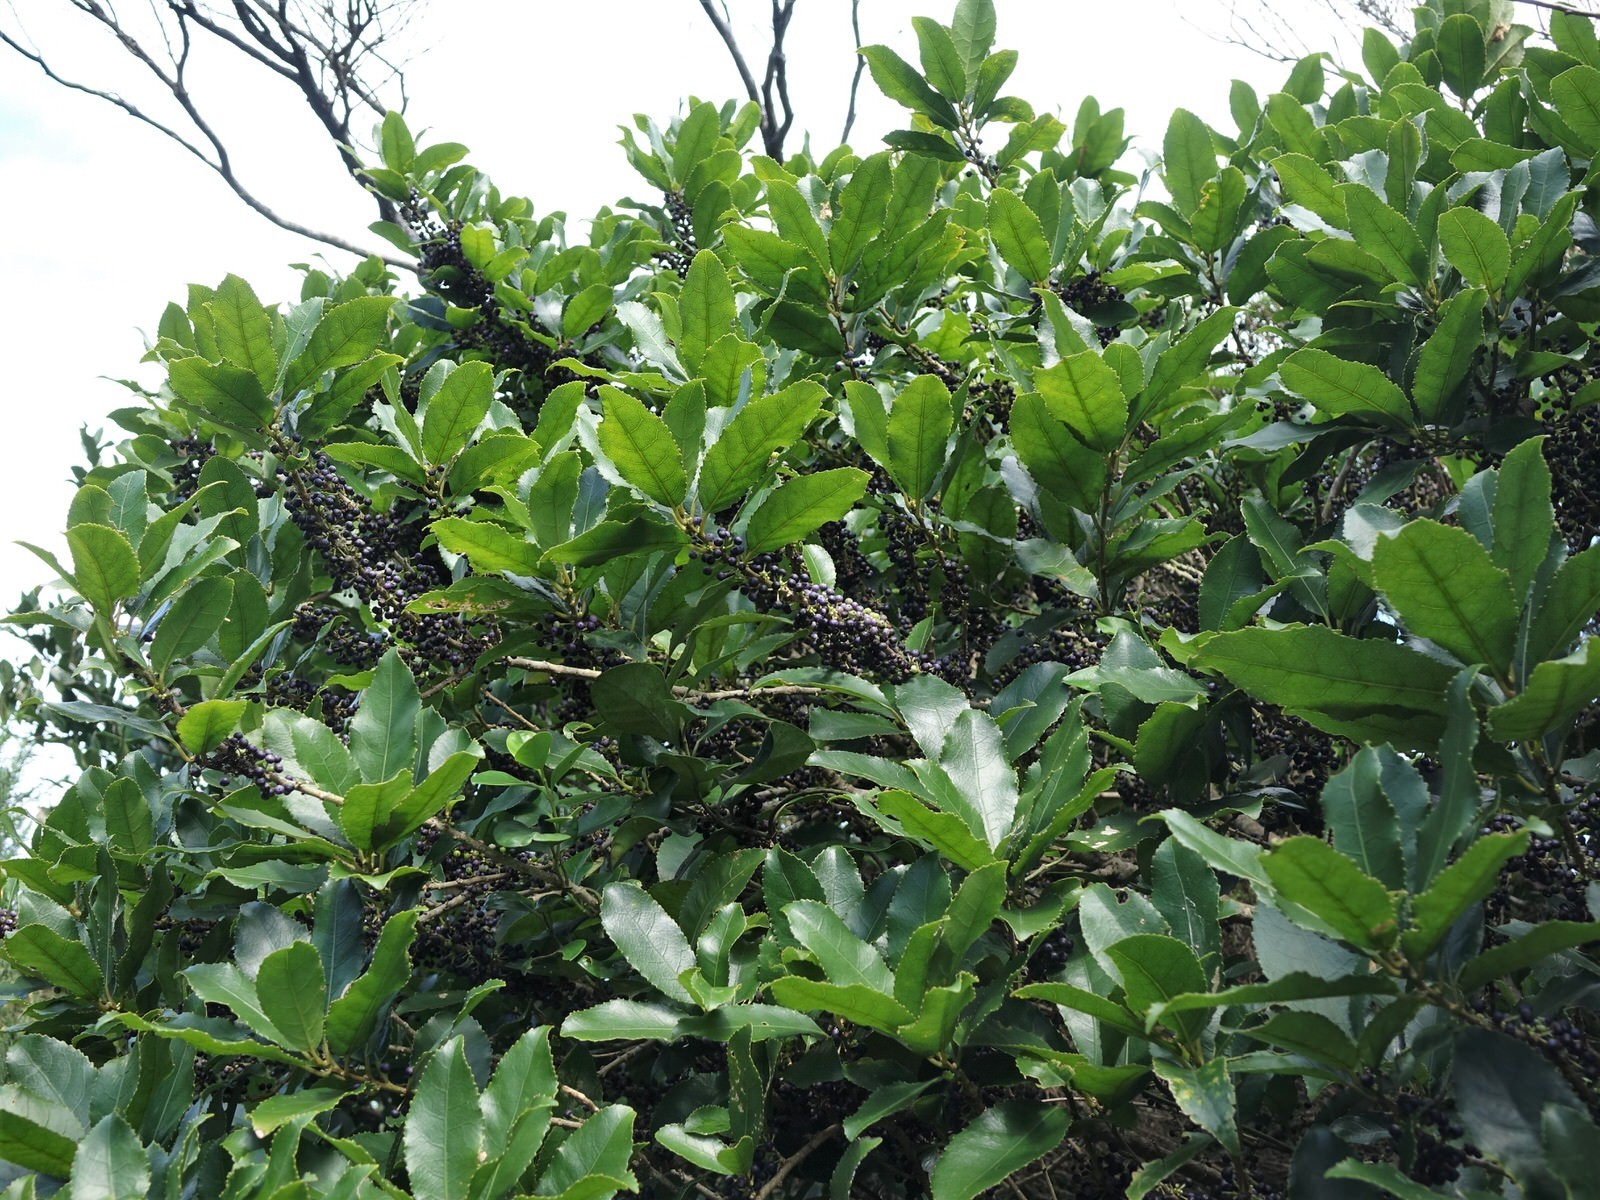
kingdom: Plantae
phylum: Tracheophyta
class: Magnoliopsida
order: Malpighiales
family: Violaceae
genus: Melicytus
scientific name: Melicytus ramiflorus
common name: Mahoe
